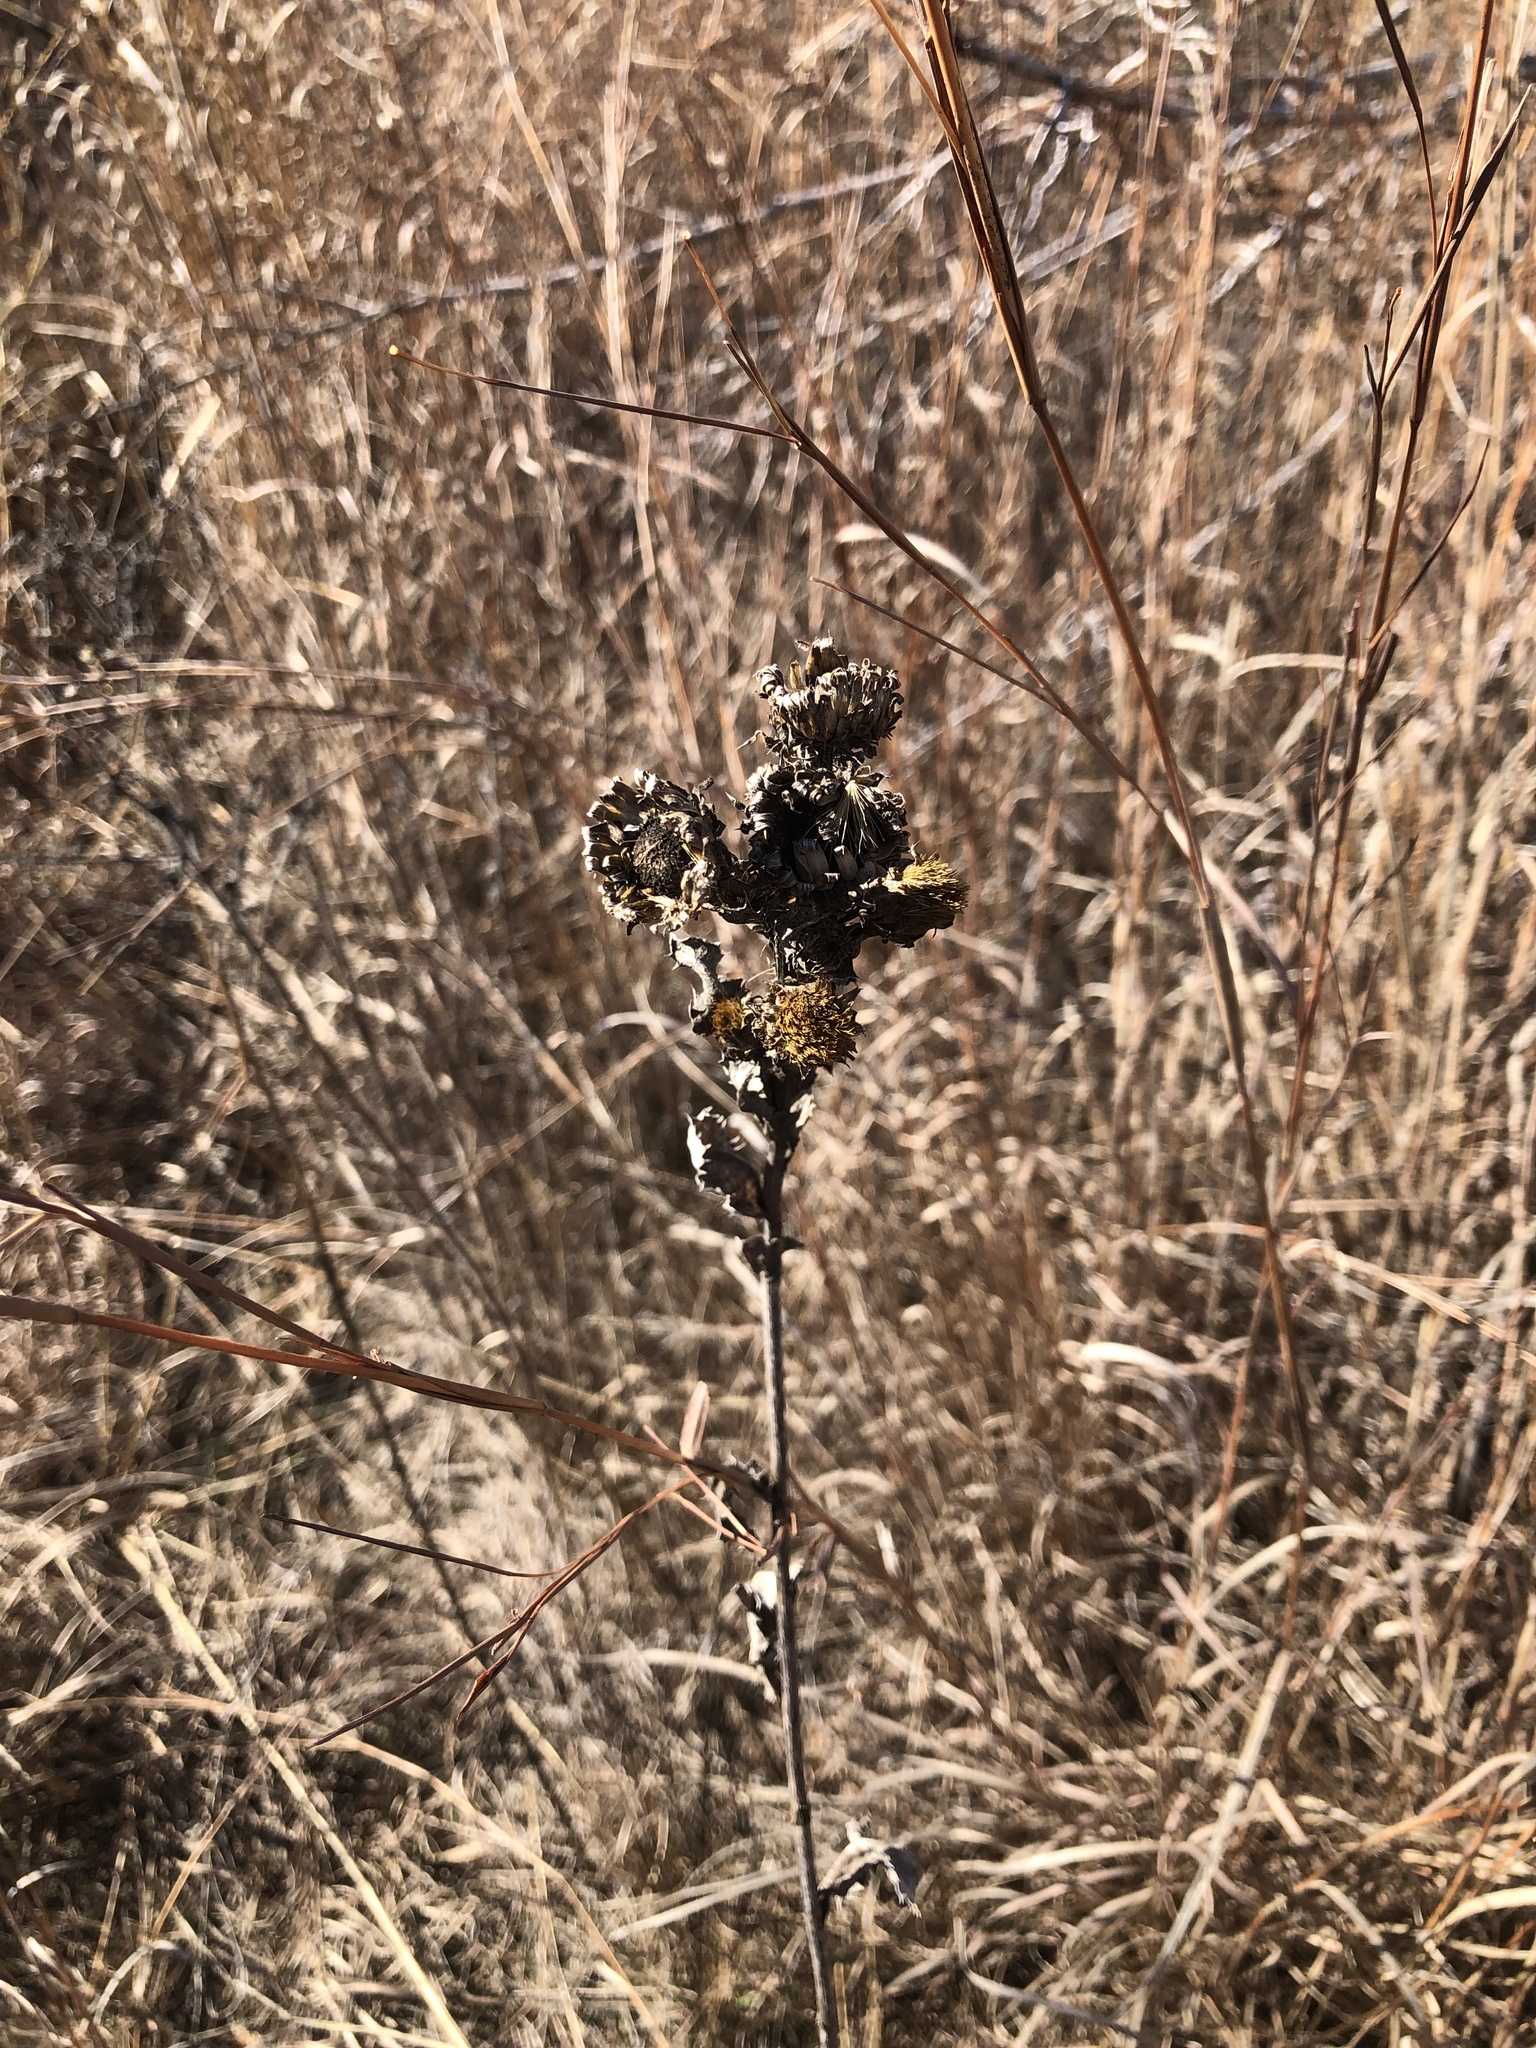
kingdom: Plantae
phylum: Tracheophyta
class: Magnoliopsida
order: Asterales
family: Asteraceae
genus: Grindelia
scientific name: Grindelia ciliata
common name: Goldenweed
